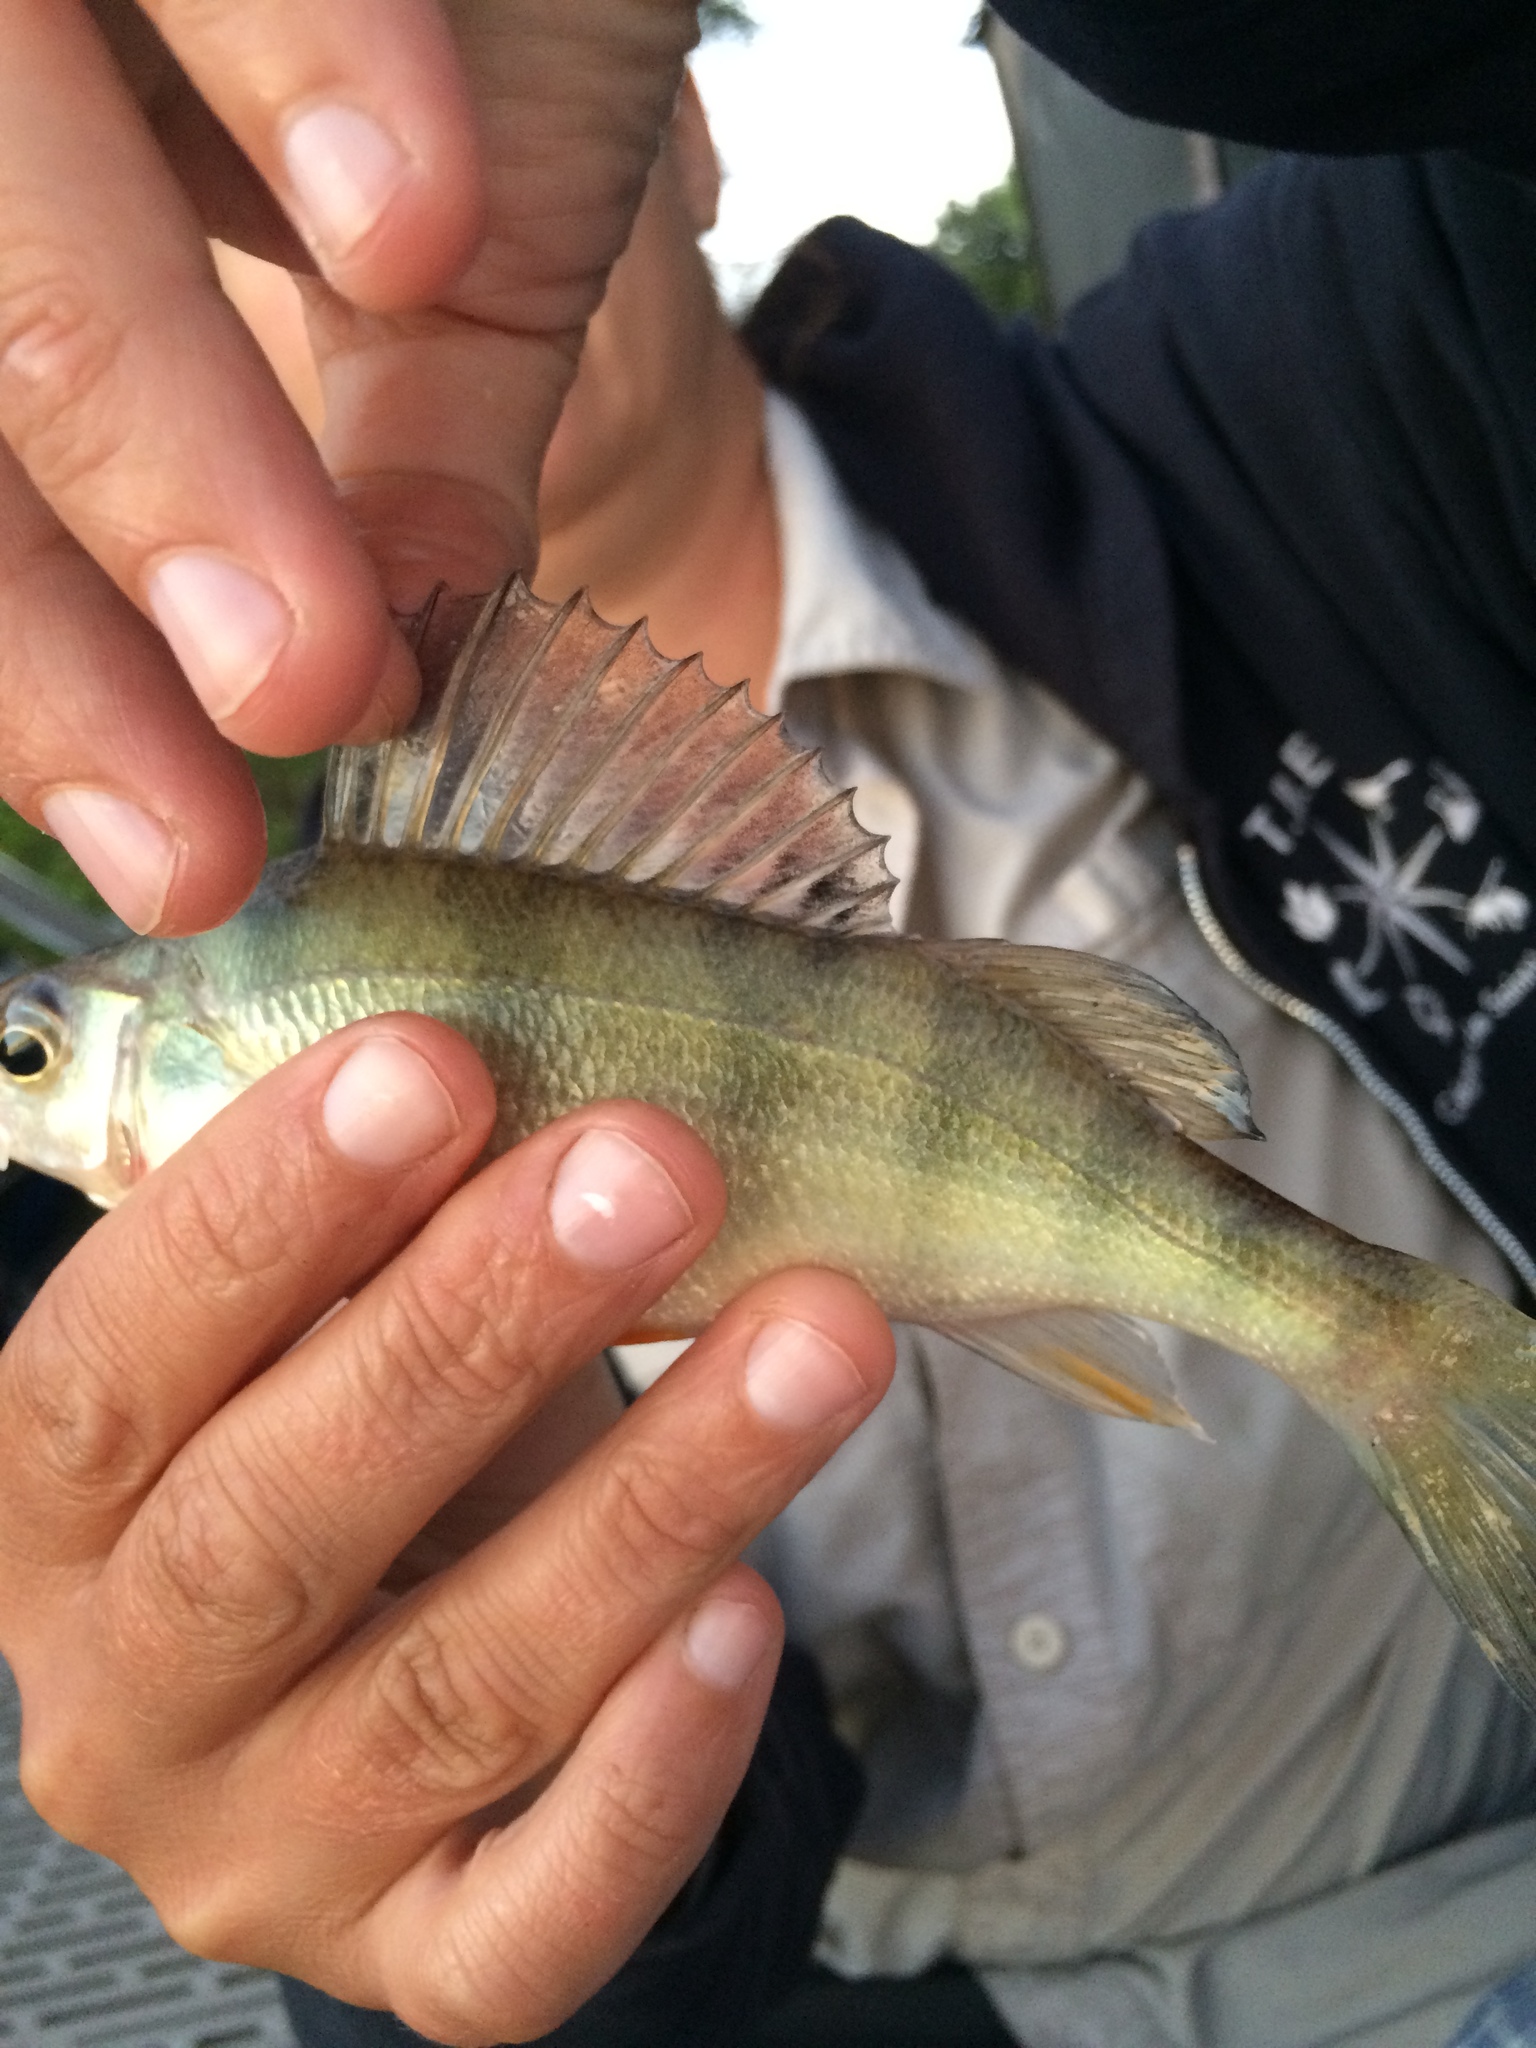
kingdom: Animalia
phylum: Chordata
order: Perciformes
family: Percidae
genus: Perca
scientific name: Perca flavescens
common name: Yellow perch
